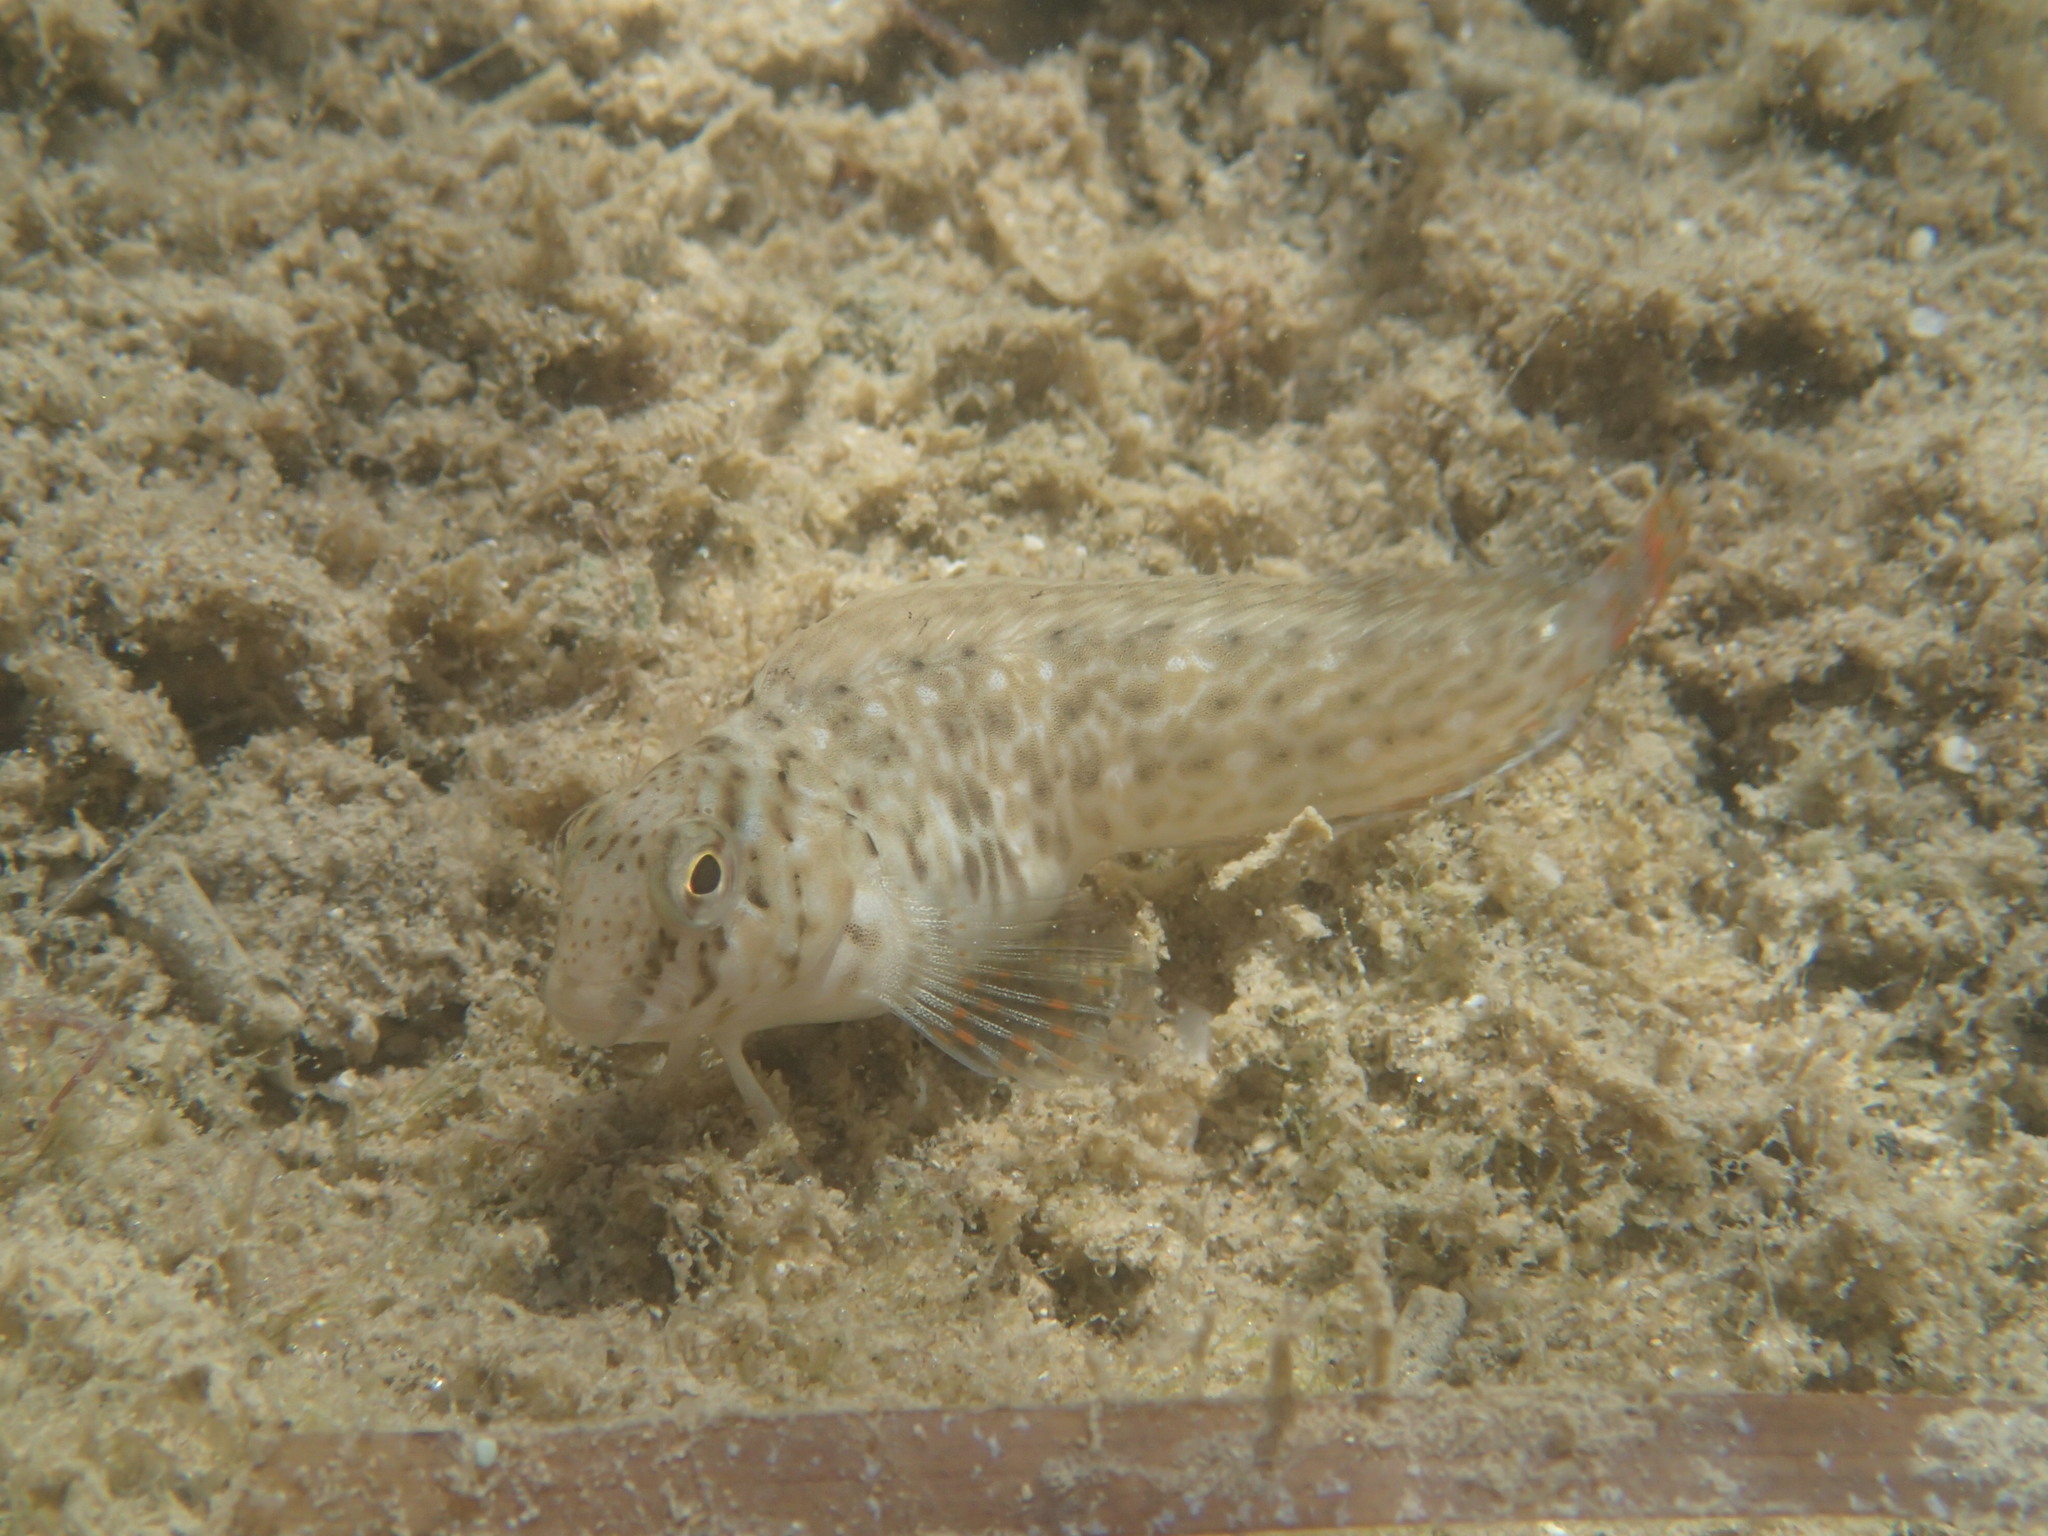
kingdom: Animalia
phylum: Chordata
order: Perciformes
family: Blenniidae
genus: Parablennius
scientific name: Parablennius sanguinolentus
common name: Black sea blenny
